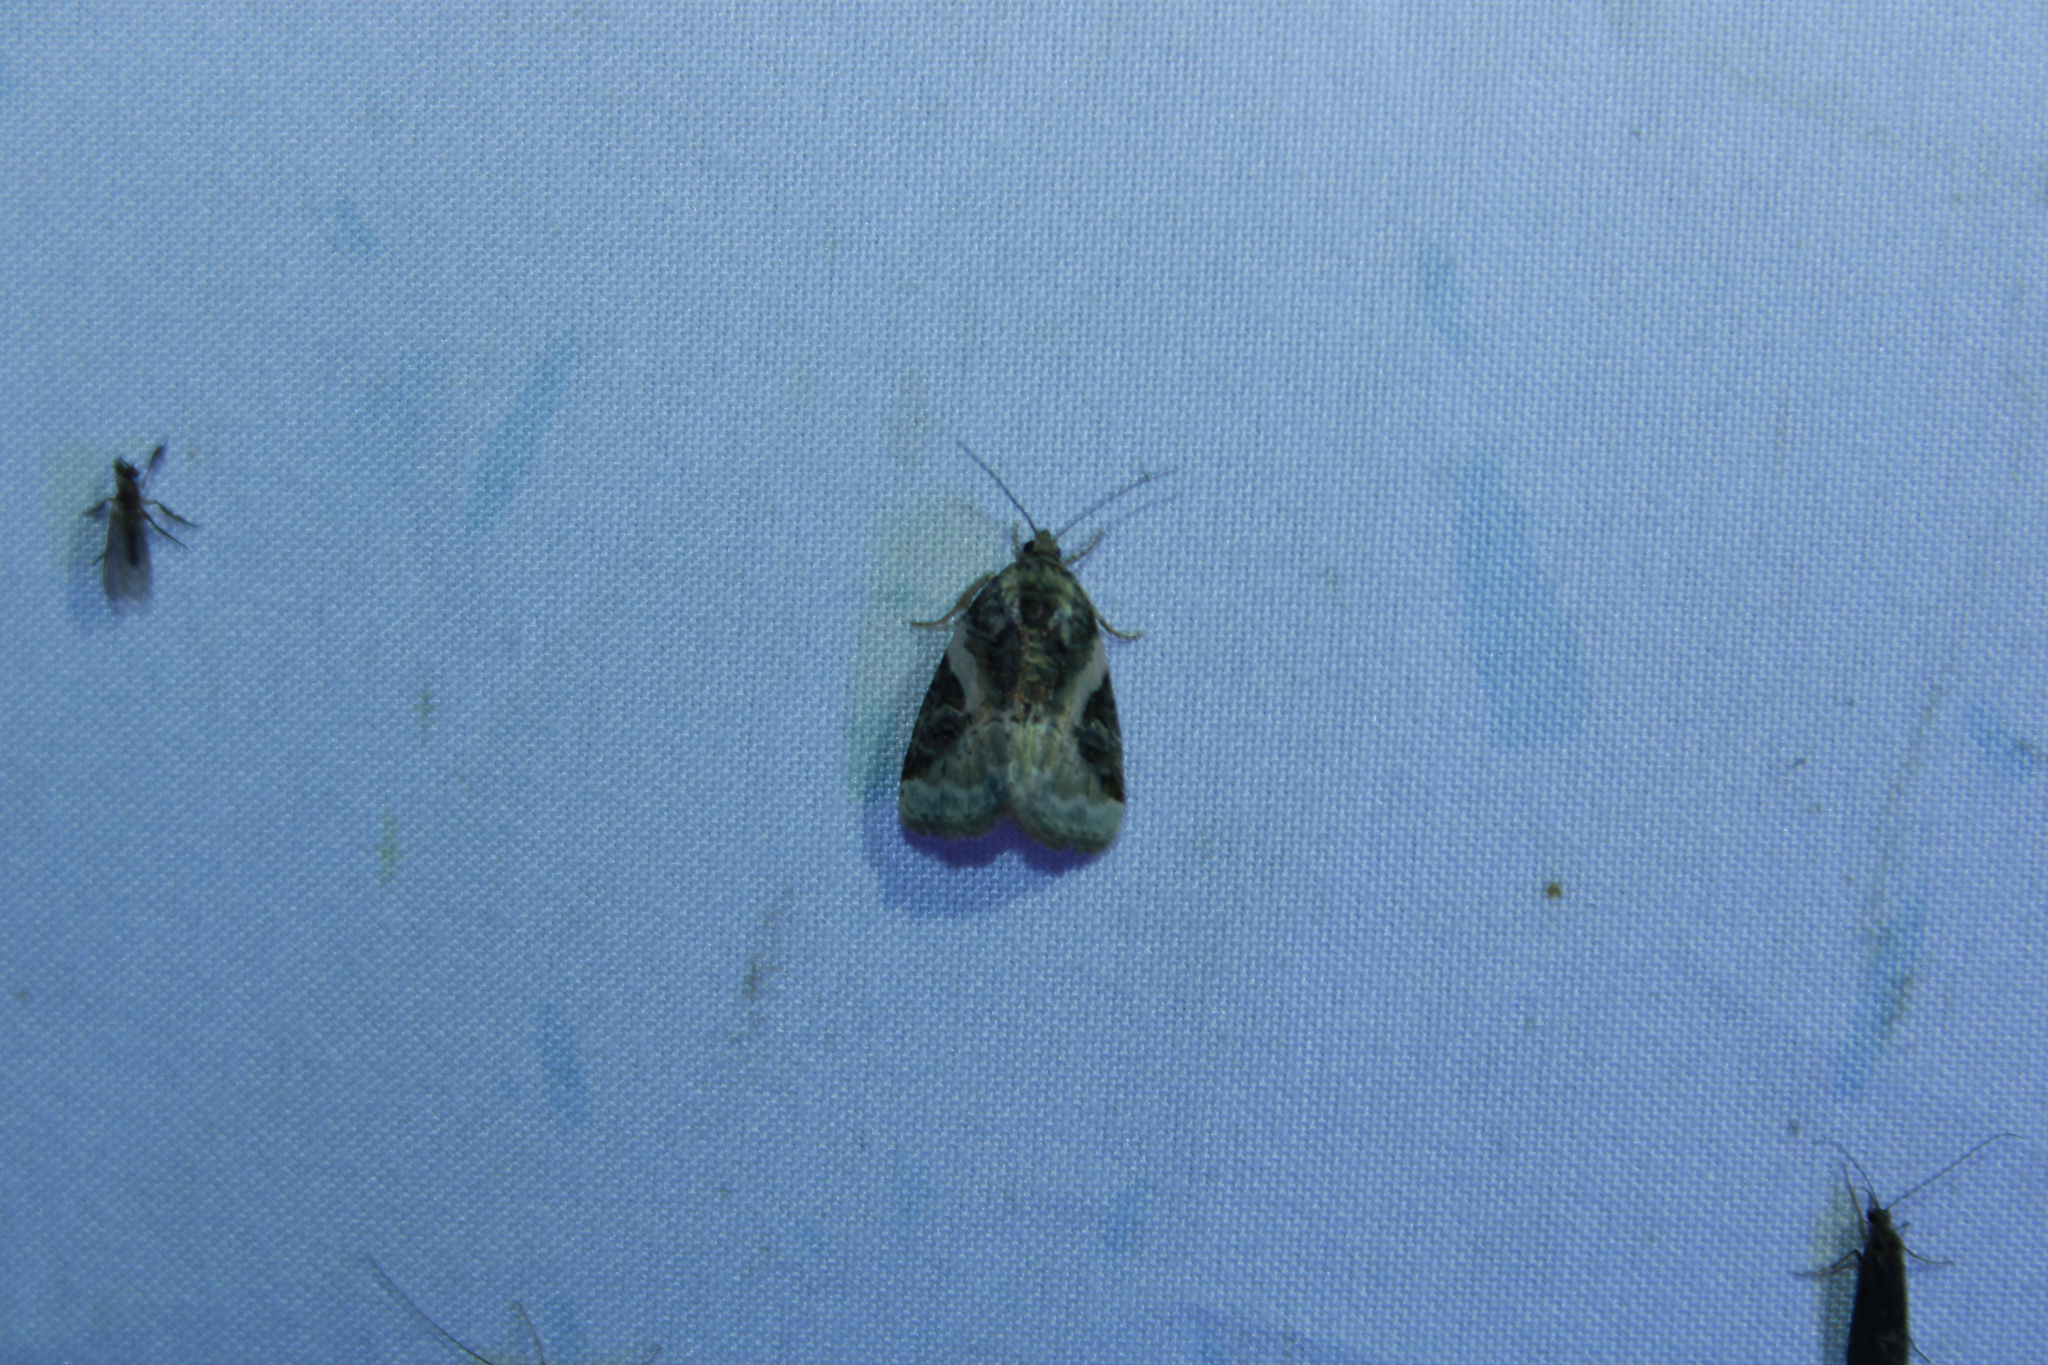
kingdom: Animalia
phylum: Arthropoda
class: Insecta
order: Lepidoptera
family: Noctuidae
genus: Pseudeustrotia
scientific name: Pseudeustrotia carneola
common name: Pink-barred lithacodia moth
